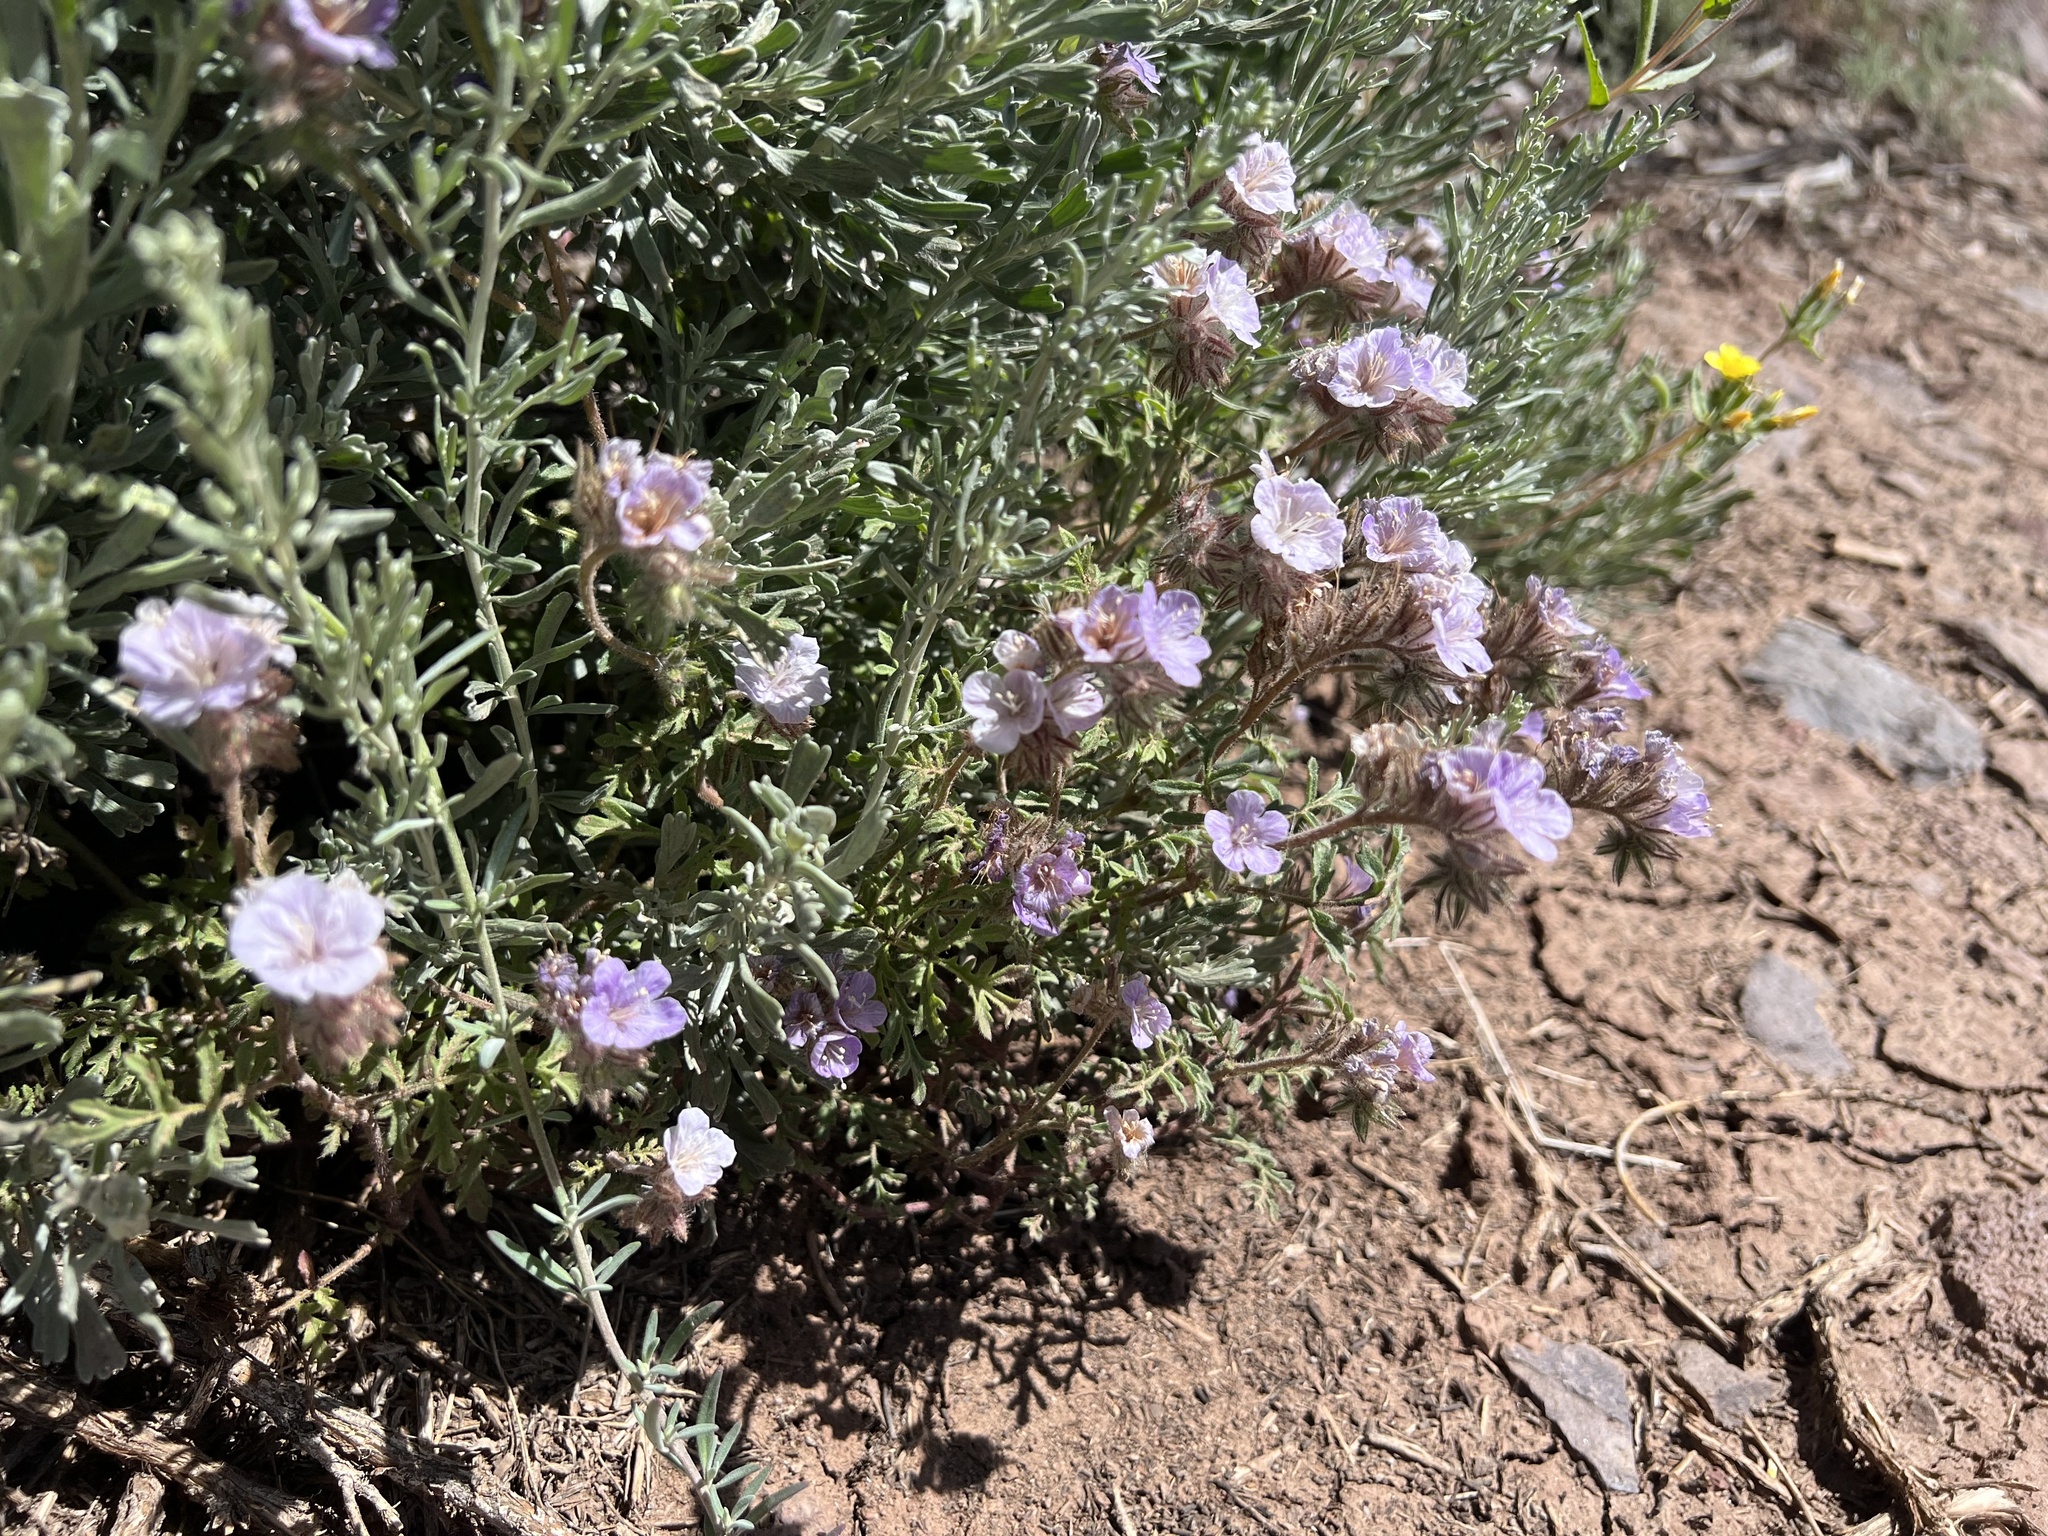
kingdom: Plantae
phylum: Tracheophyta
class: Magnoliopsida
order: Boraginales
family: Hydrophyllaceae
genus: Phacelia
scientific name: Phacelia vallis-mortae
